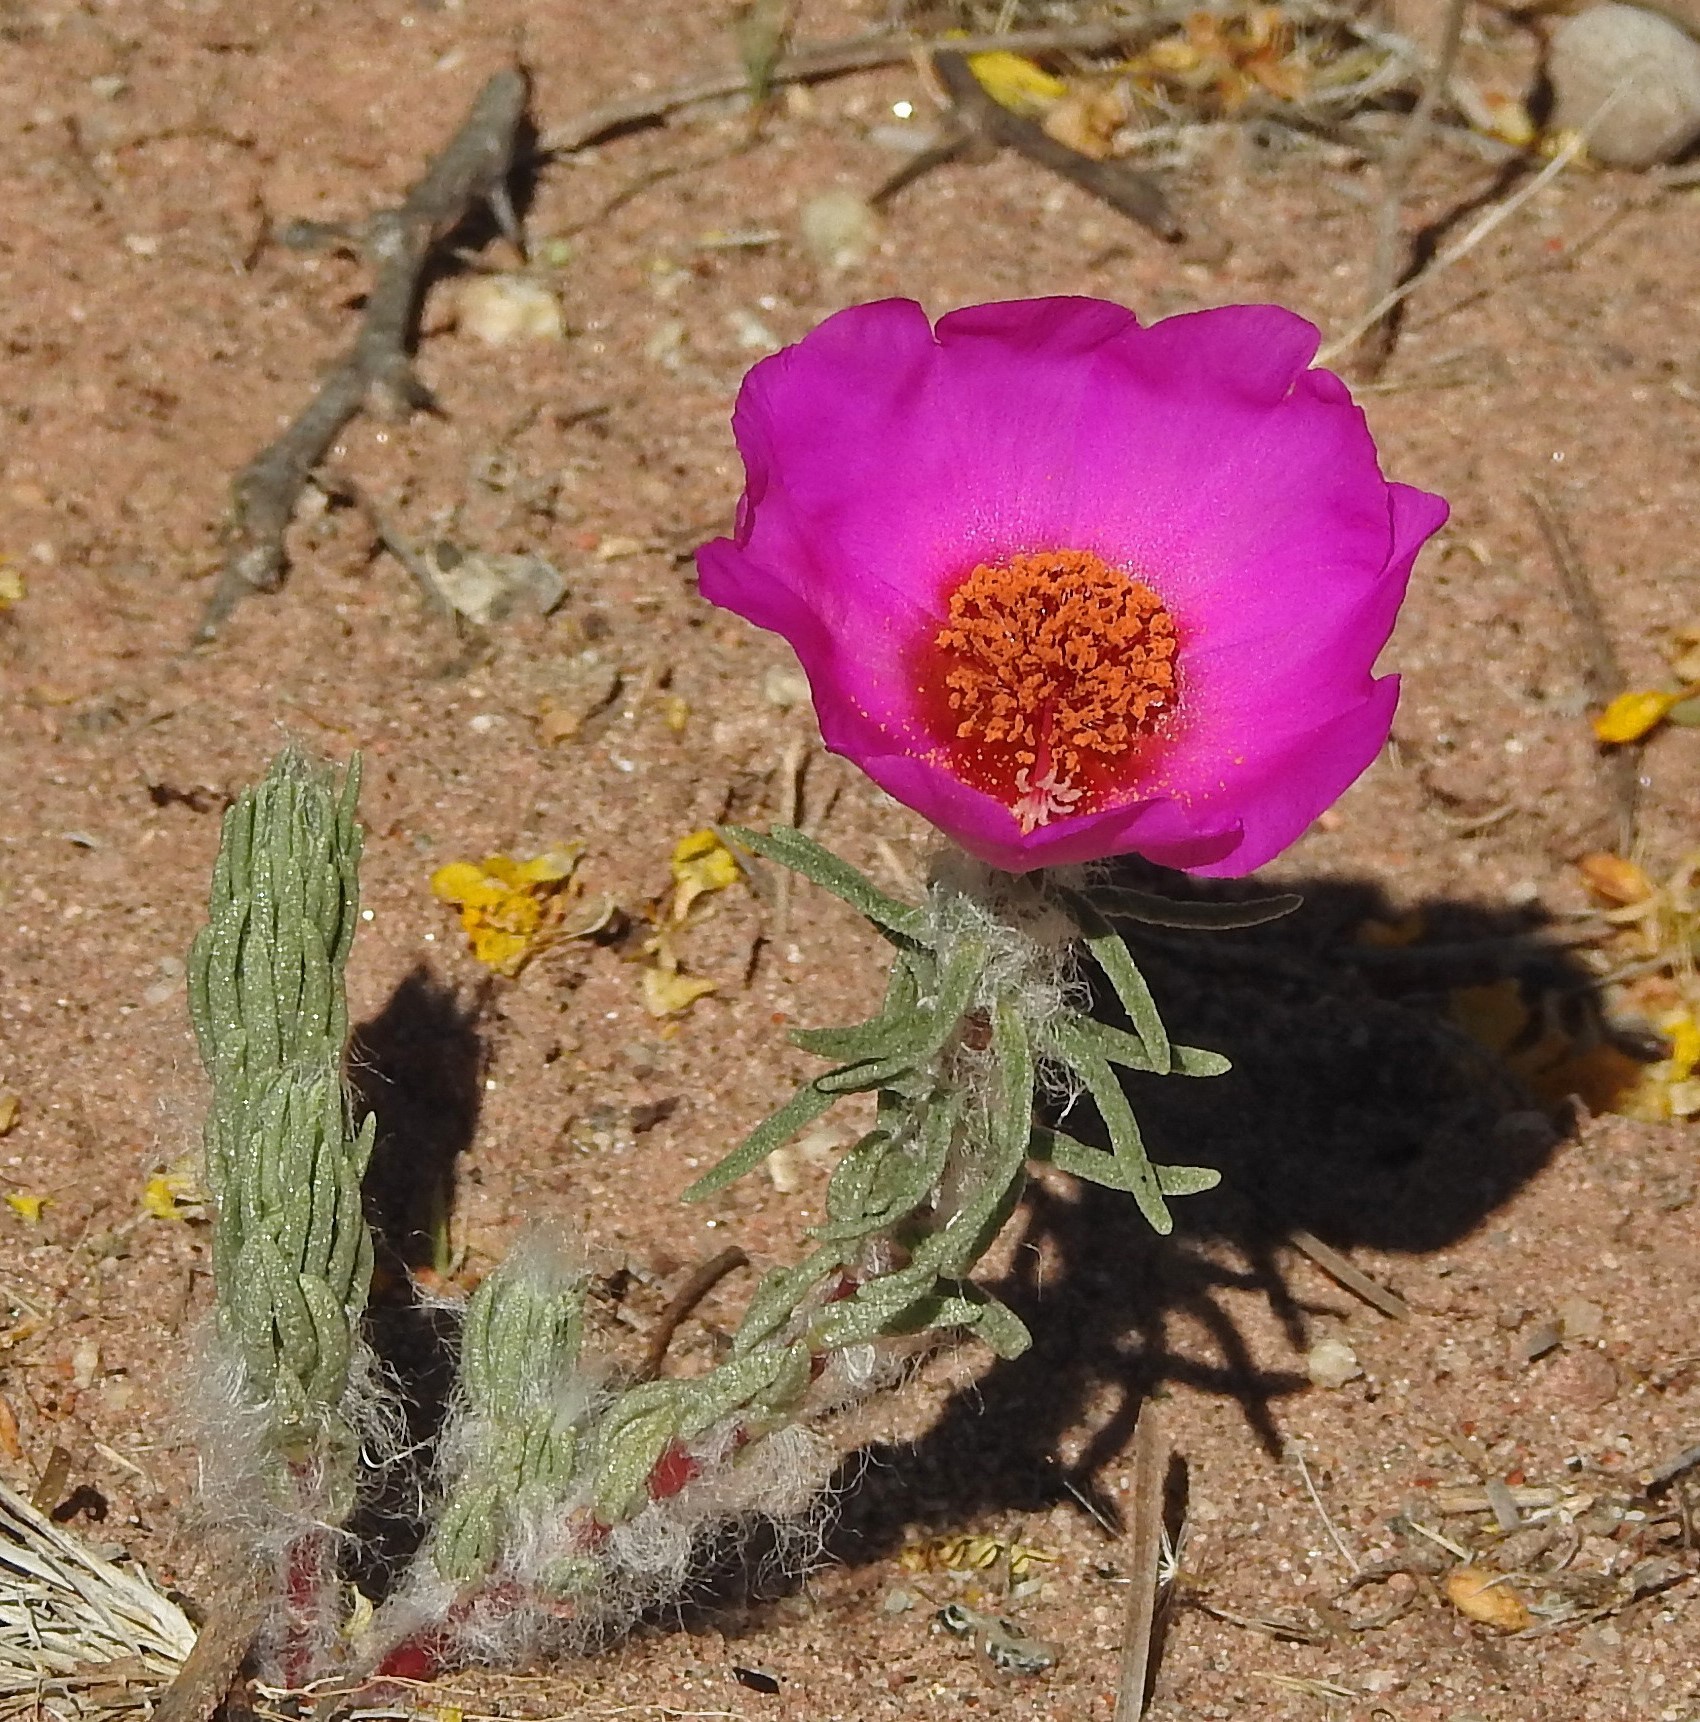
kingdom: Plantae
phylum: Tracheophyta
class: Magnoliopsida
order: Caryophyllales
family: Portulacaceae
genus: Portulaca
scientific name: Portulaca grandiflora
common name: Moss-rose
